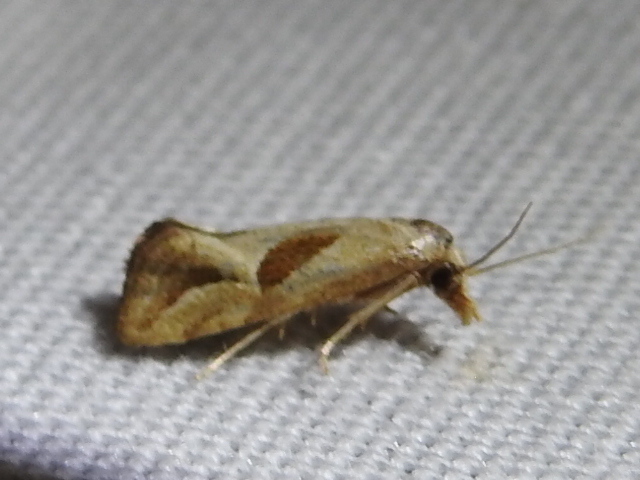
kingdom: Animalia
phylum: Arthropoda
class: Insecta
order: Lepidoptera
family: Tortricidae
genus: Eugnosta
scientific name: Eugnosta bimaculana
